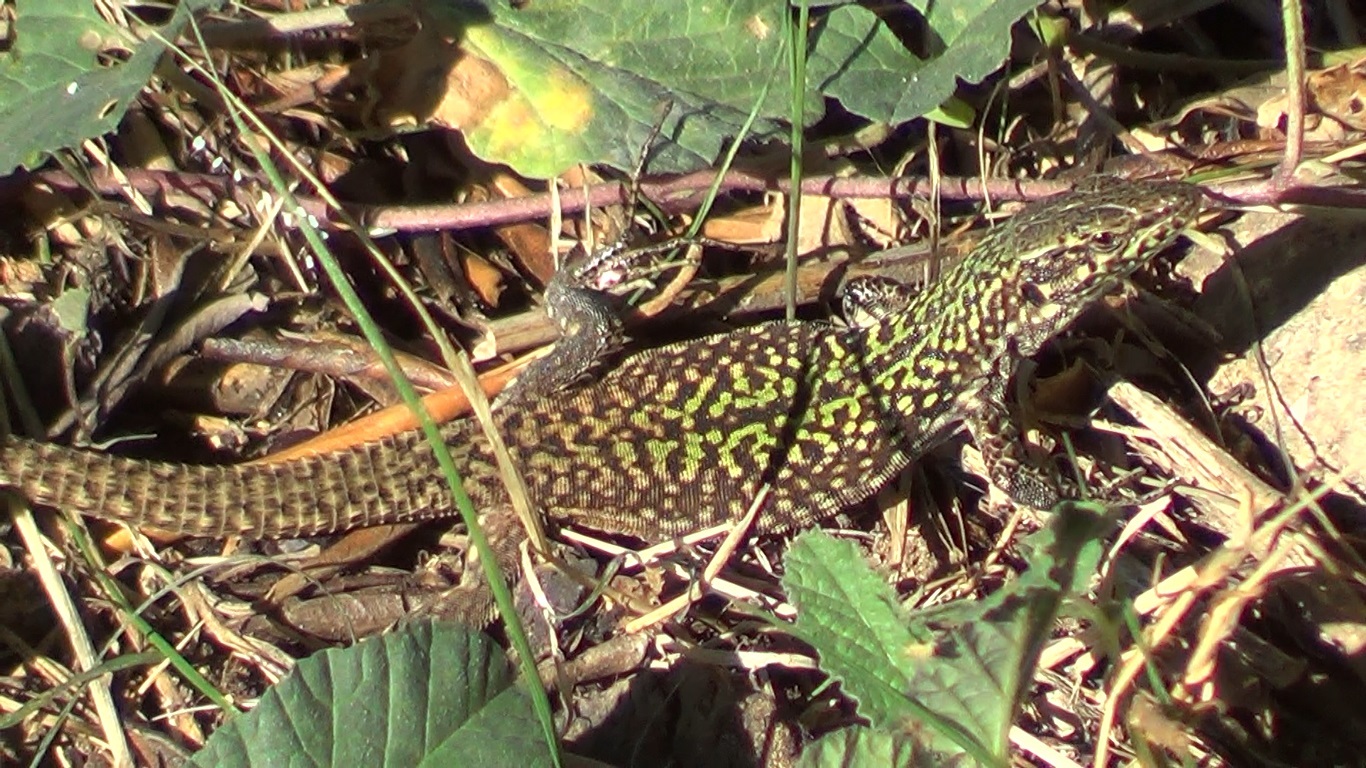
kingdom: Animalia
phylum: Chordata
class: Squamata
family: Lacertidae
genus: Podarcis
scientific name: Podarcis siculus
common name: Italian wall lizard
